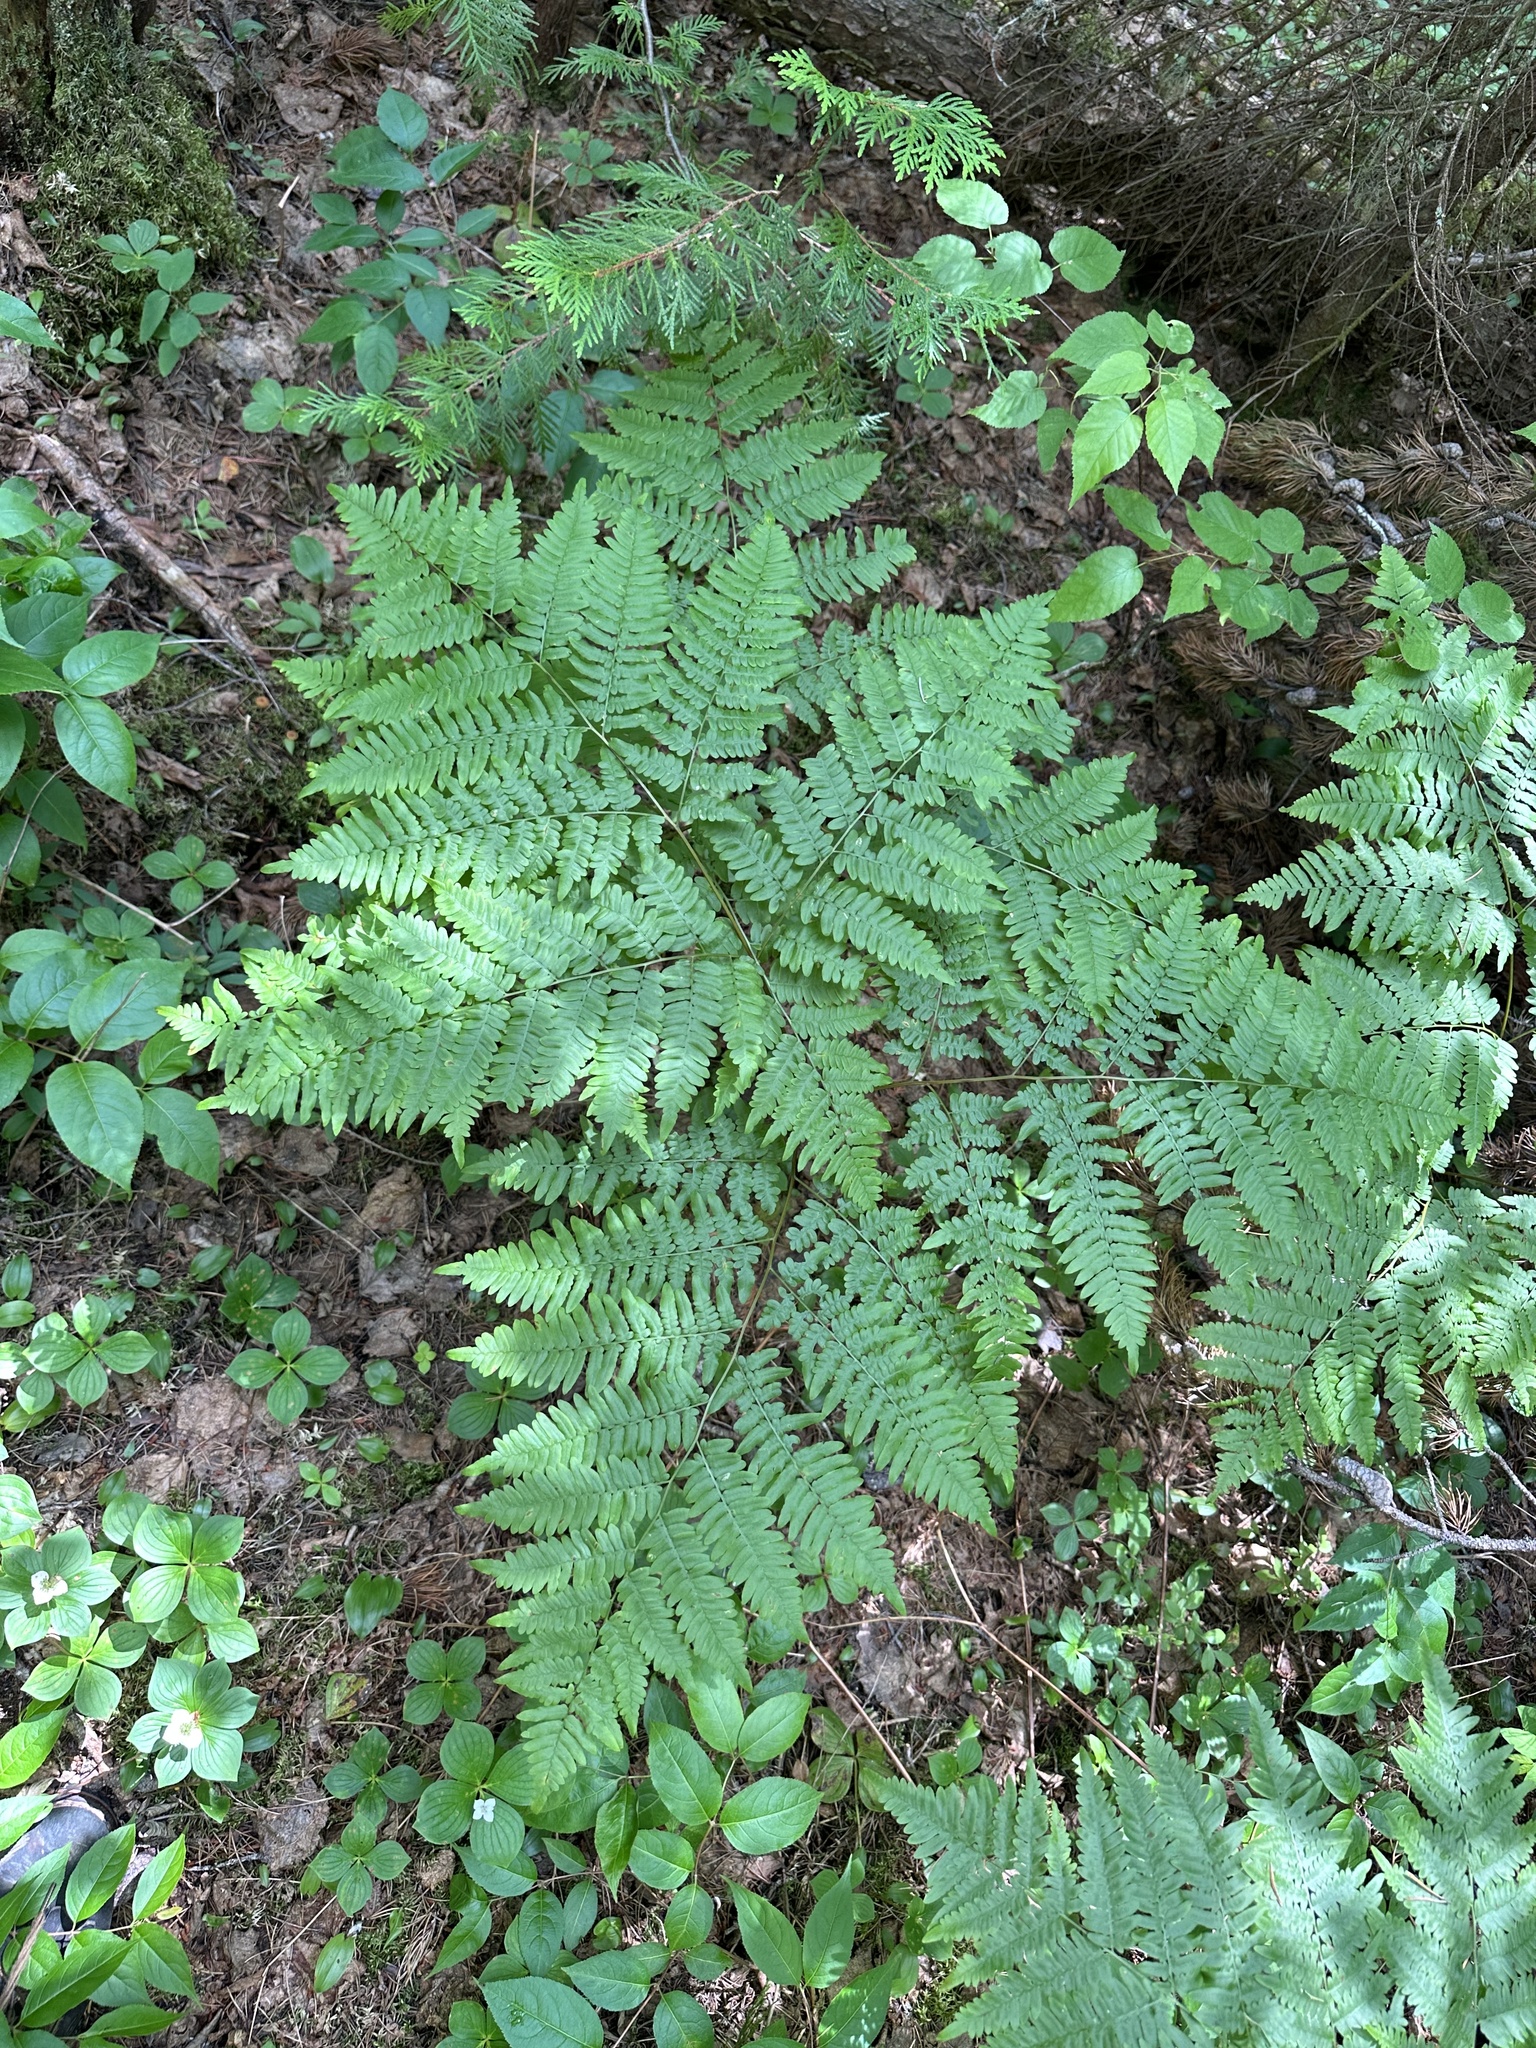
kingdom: Plantae
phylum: Tracheophyta
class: Polypodiopsida
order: Polypodiales
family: Dennstaedtiaceae
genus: Pteridium
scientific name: Pteridium aquilinum
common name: Bracken
